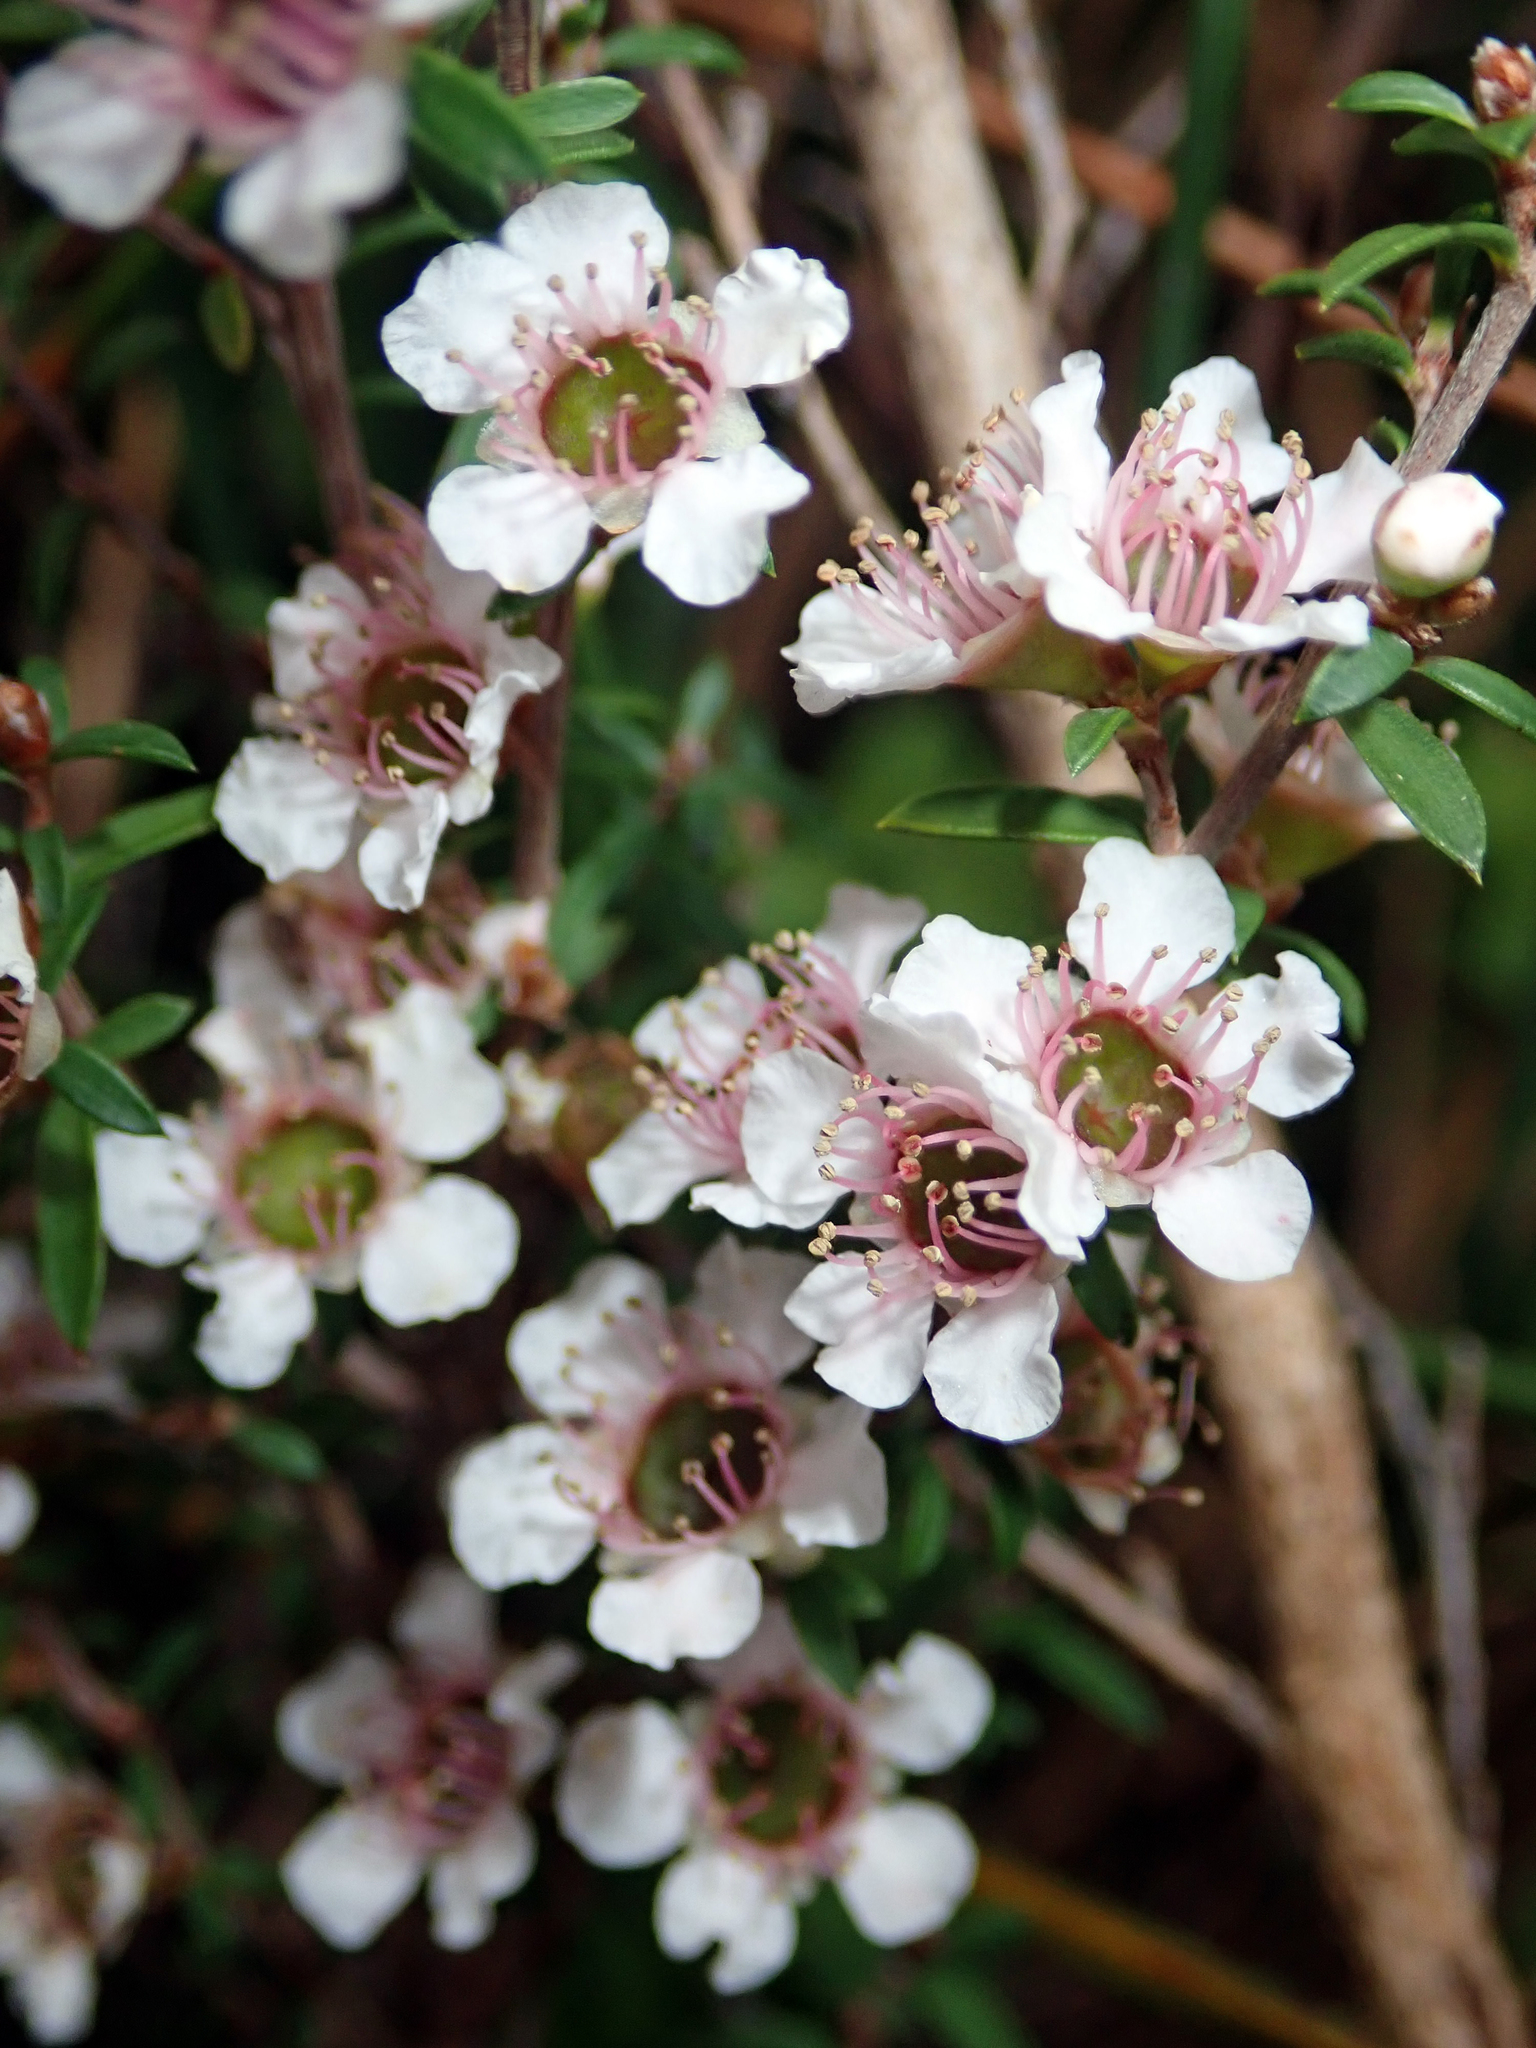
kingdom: Plantae
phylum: Tracheophyta
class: Magnoliopsida
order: Myrtales
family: Myrtaceae
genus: Leptospermum
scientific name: Leptospermum scoparium
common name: Broom tea-tree
